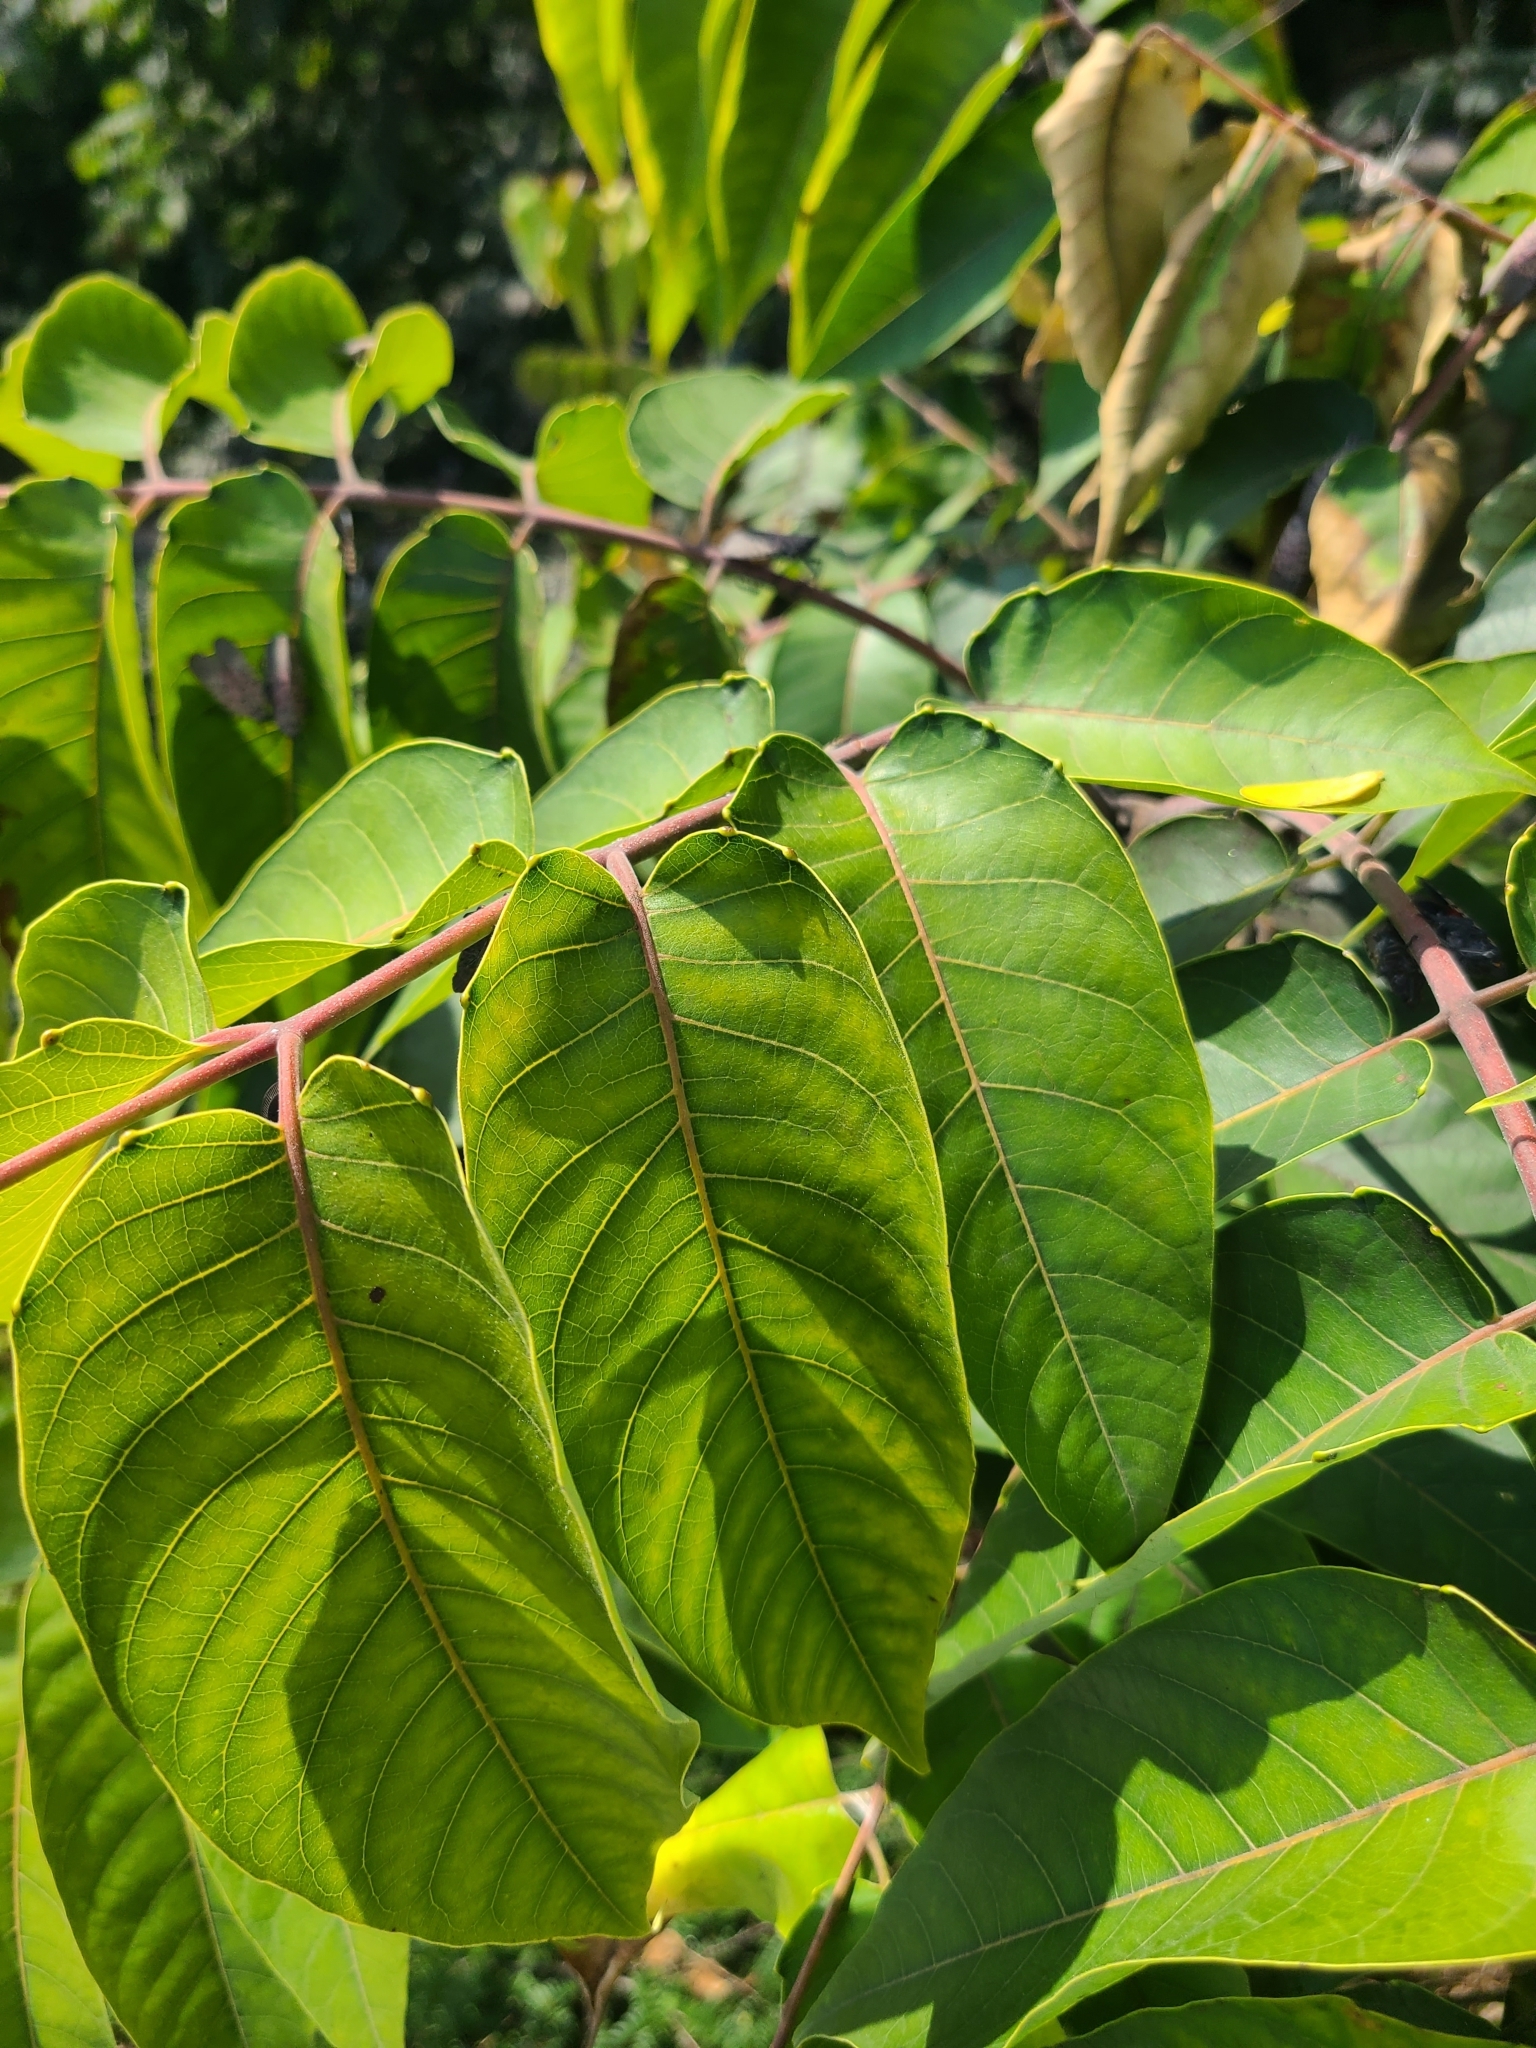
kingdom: Plantae
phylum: Tracheophyta
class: Magnoliopsida
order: Sapindales
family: Simaroubaceae
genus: Ailanthus
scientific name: Ailanthus altissima
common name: Tree-of-heaven
